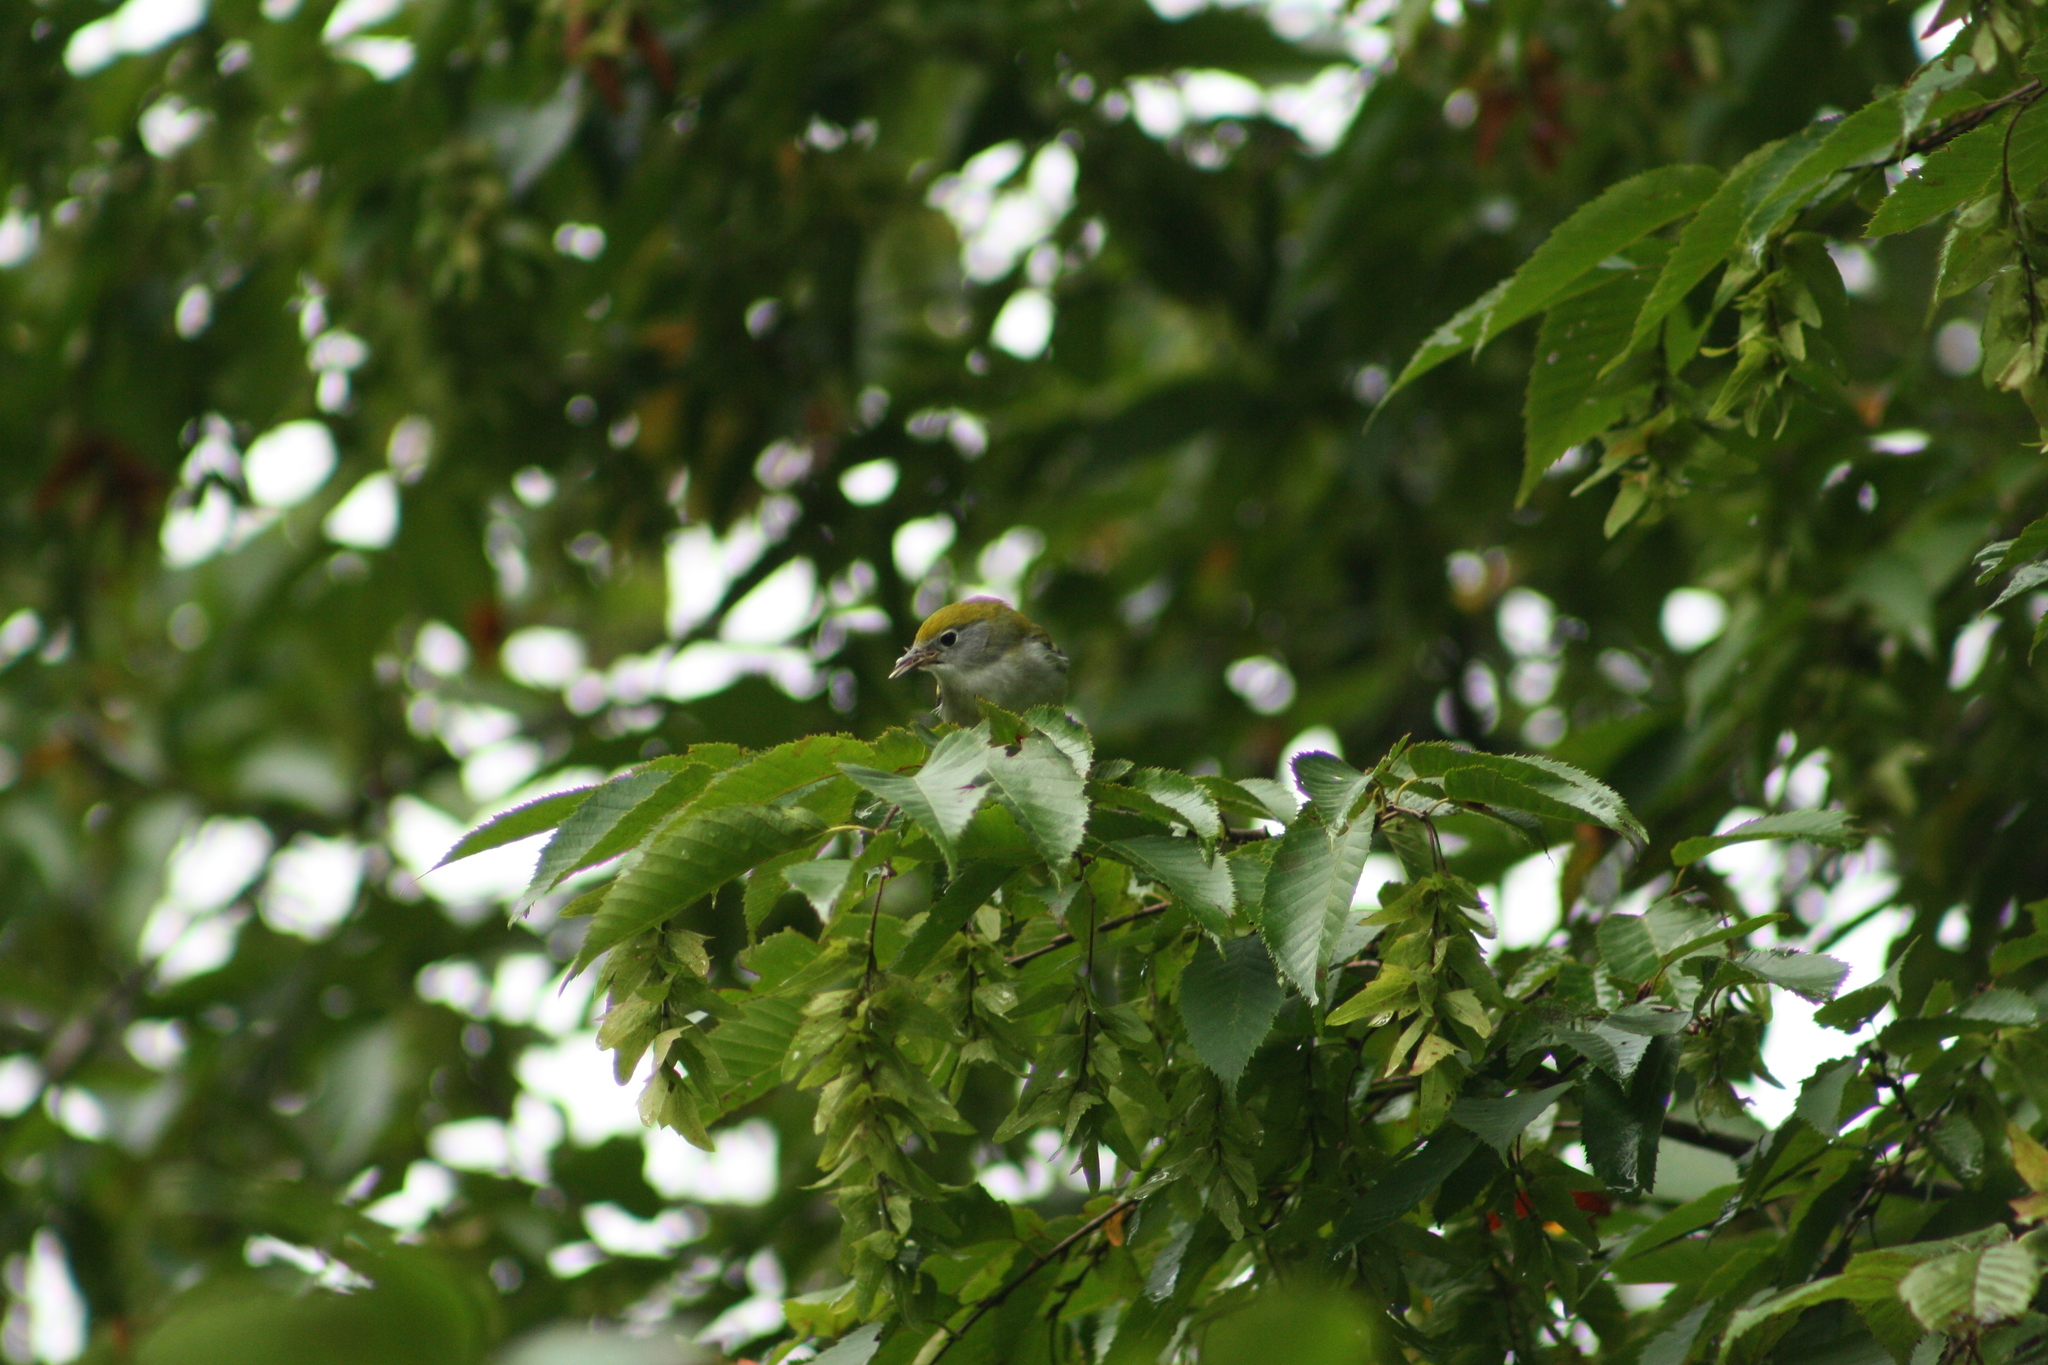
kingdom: Animalia
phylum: Chordata
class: Aves
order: Passeriformes
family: Parulidae
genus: Setophaga
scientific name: Setophaga pensylvanica
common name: Chestnut-sided warbler
